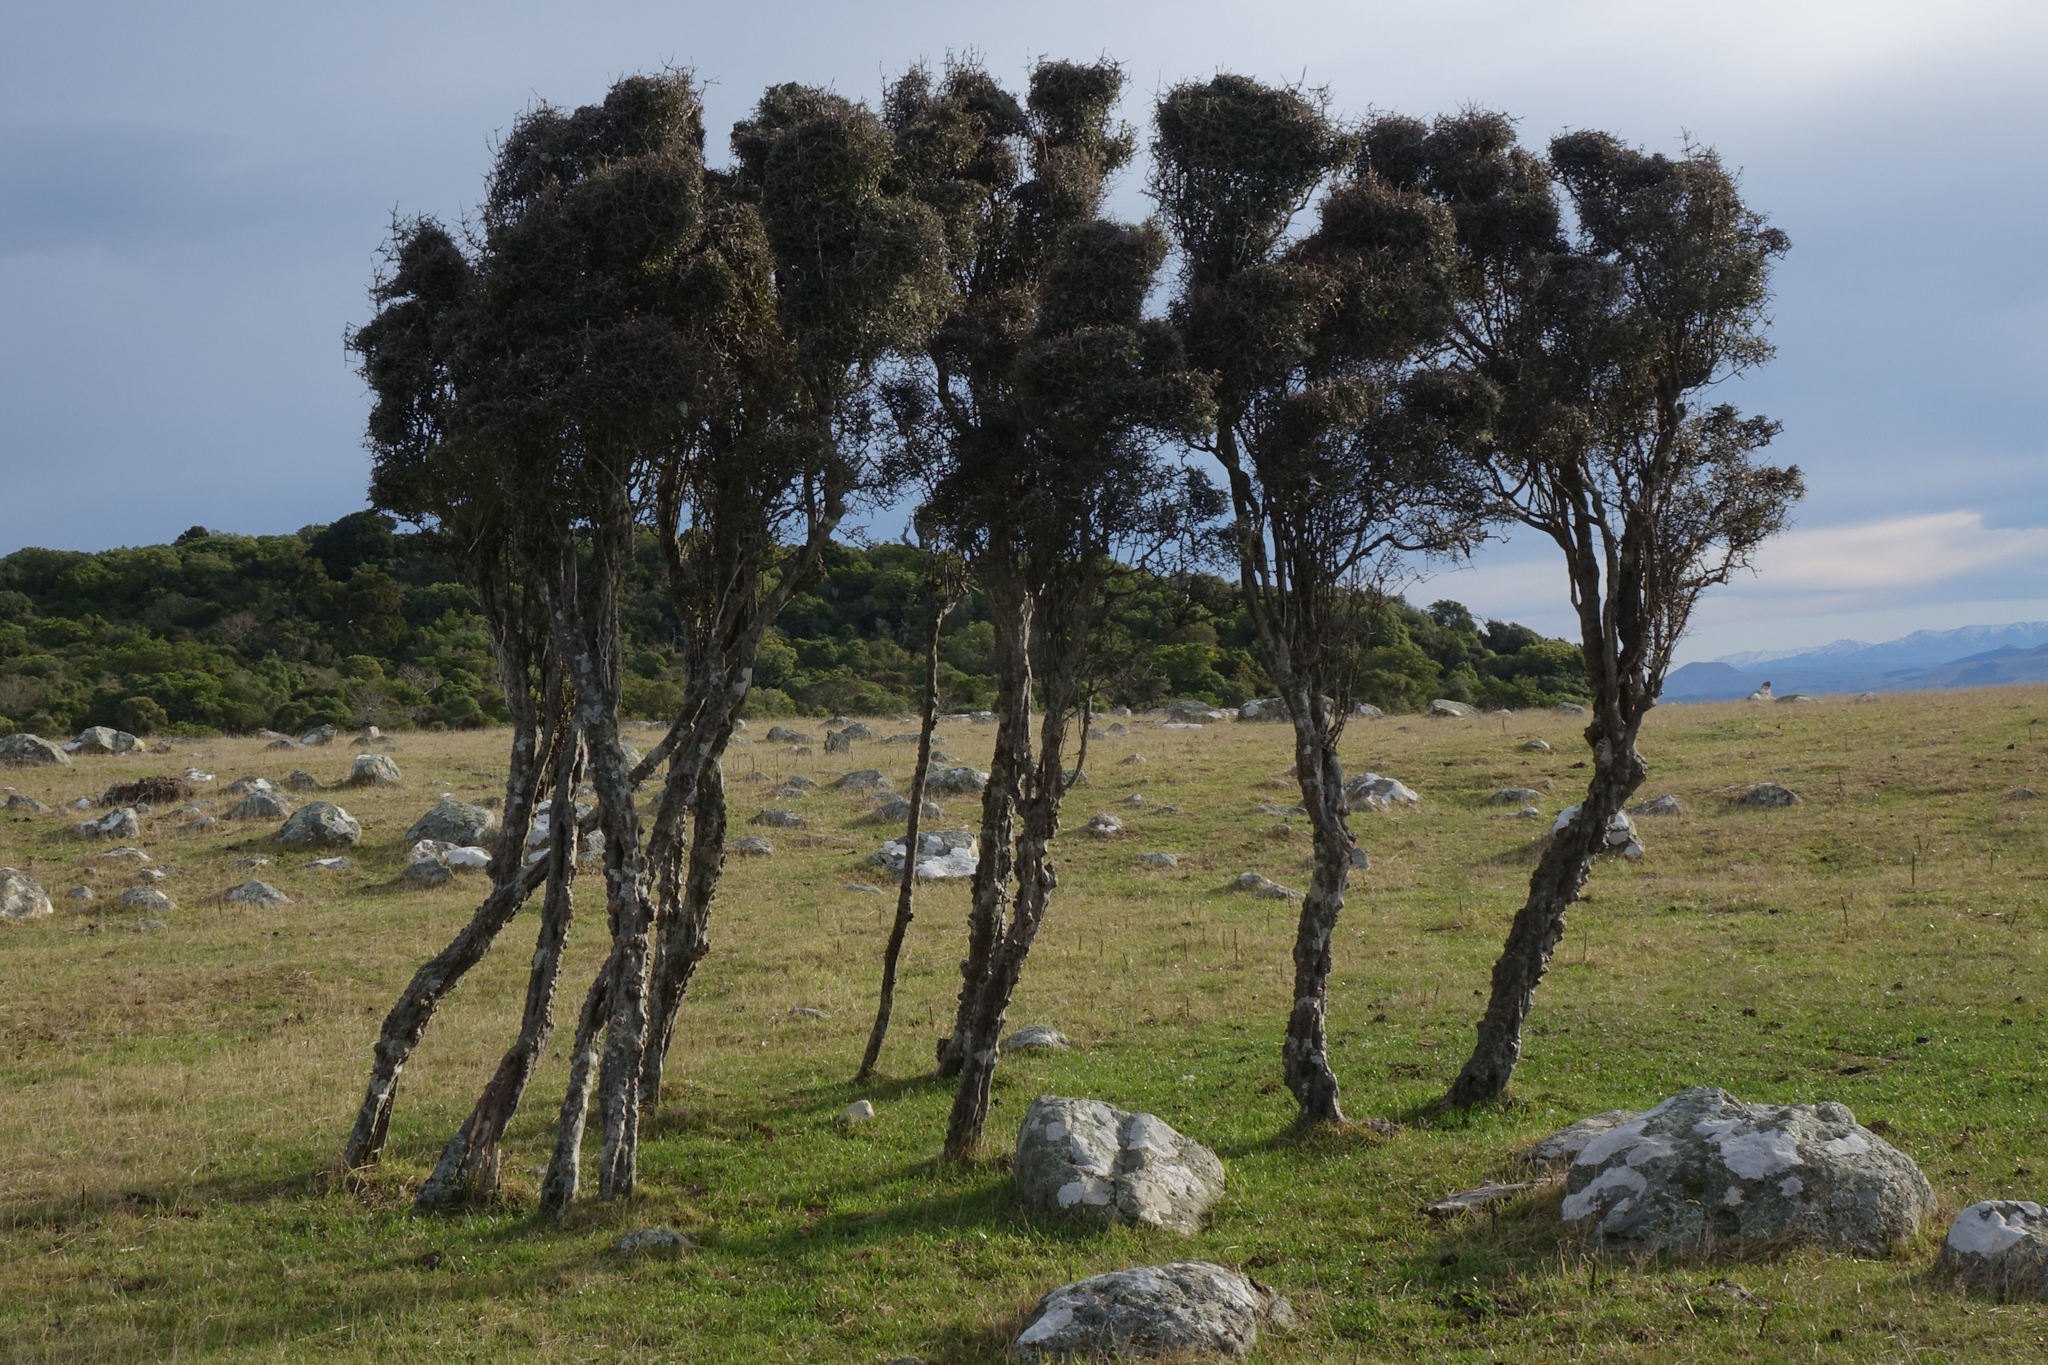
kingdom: Plantae
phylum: Tracheophyta
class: Magnoliopsida
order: Gentianales
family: Rubiaceae
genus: Coprosma
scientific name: Coprosma crassifolia
